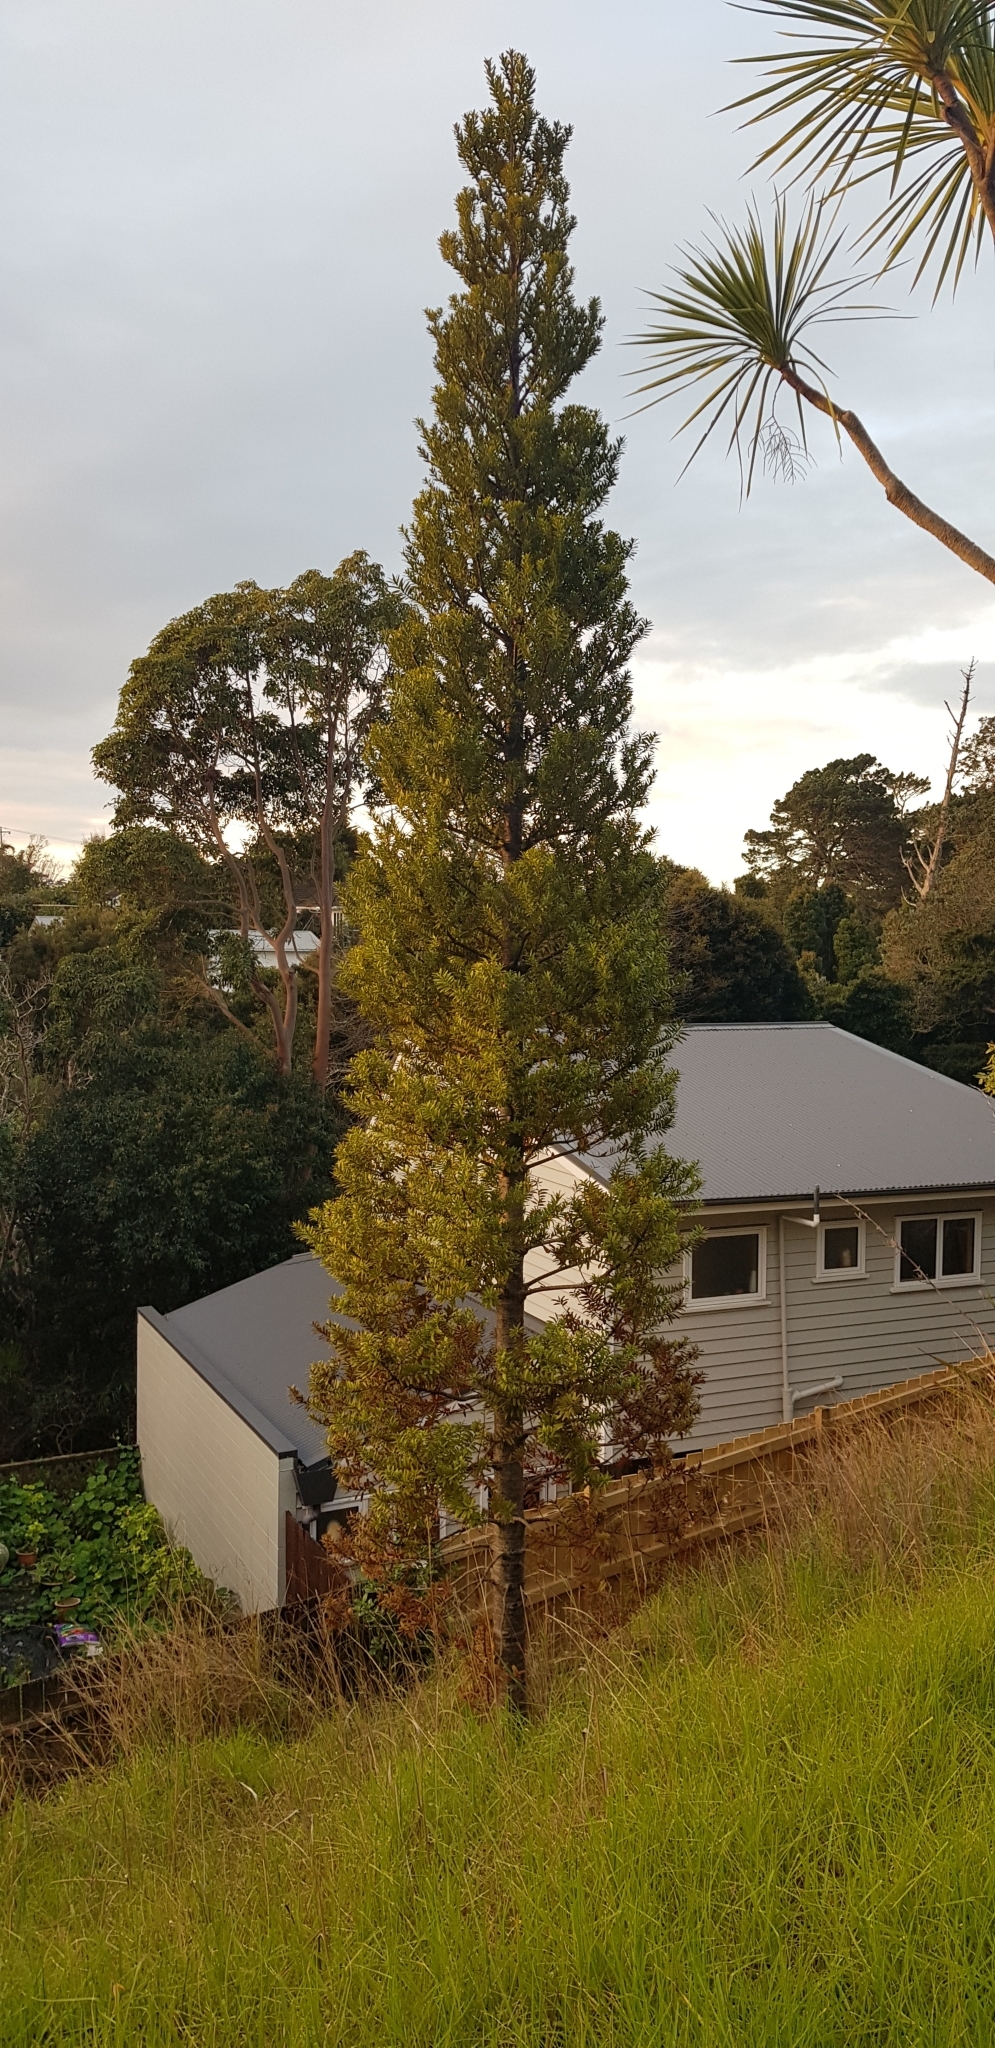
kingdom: Plantae
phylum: Tracheophyta
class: Pinopsida
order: Pinales
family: Araucariaceae
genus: Agathis
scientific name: Agathis australis
